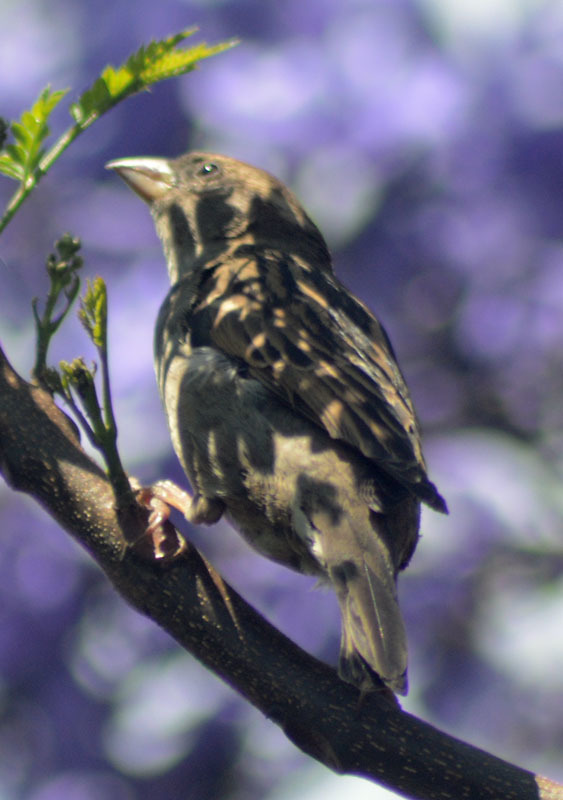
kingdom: Animalia
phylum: Chordata
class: Aves
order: Passeriformes
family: Passeridae
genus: Passer
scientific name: Passer domesticus
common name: House sparrow
